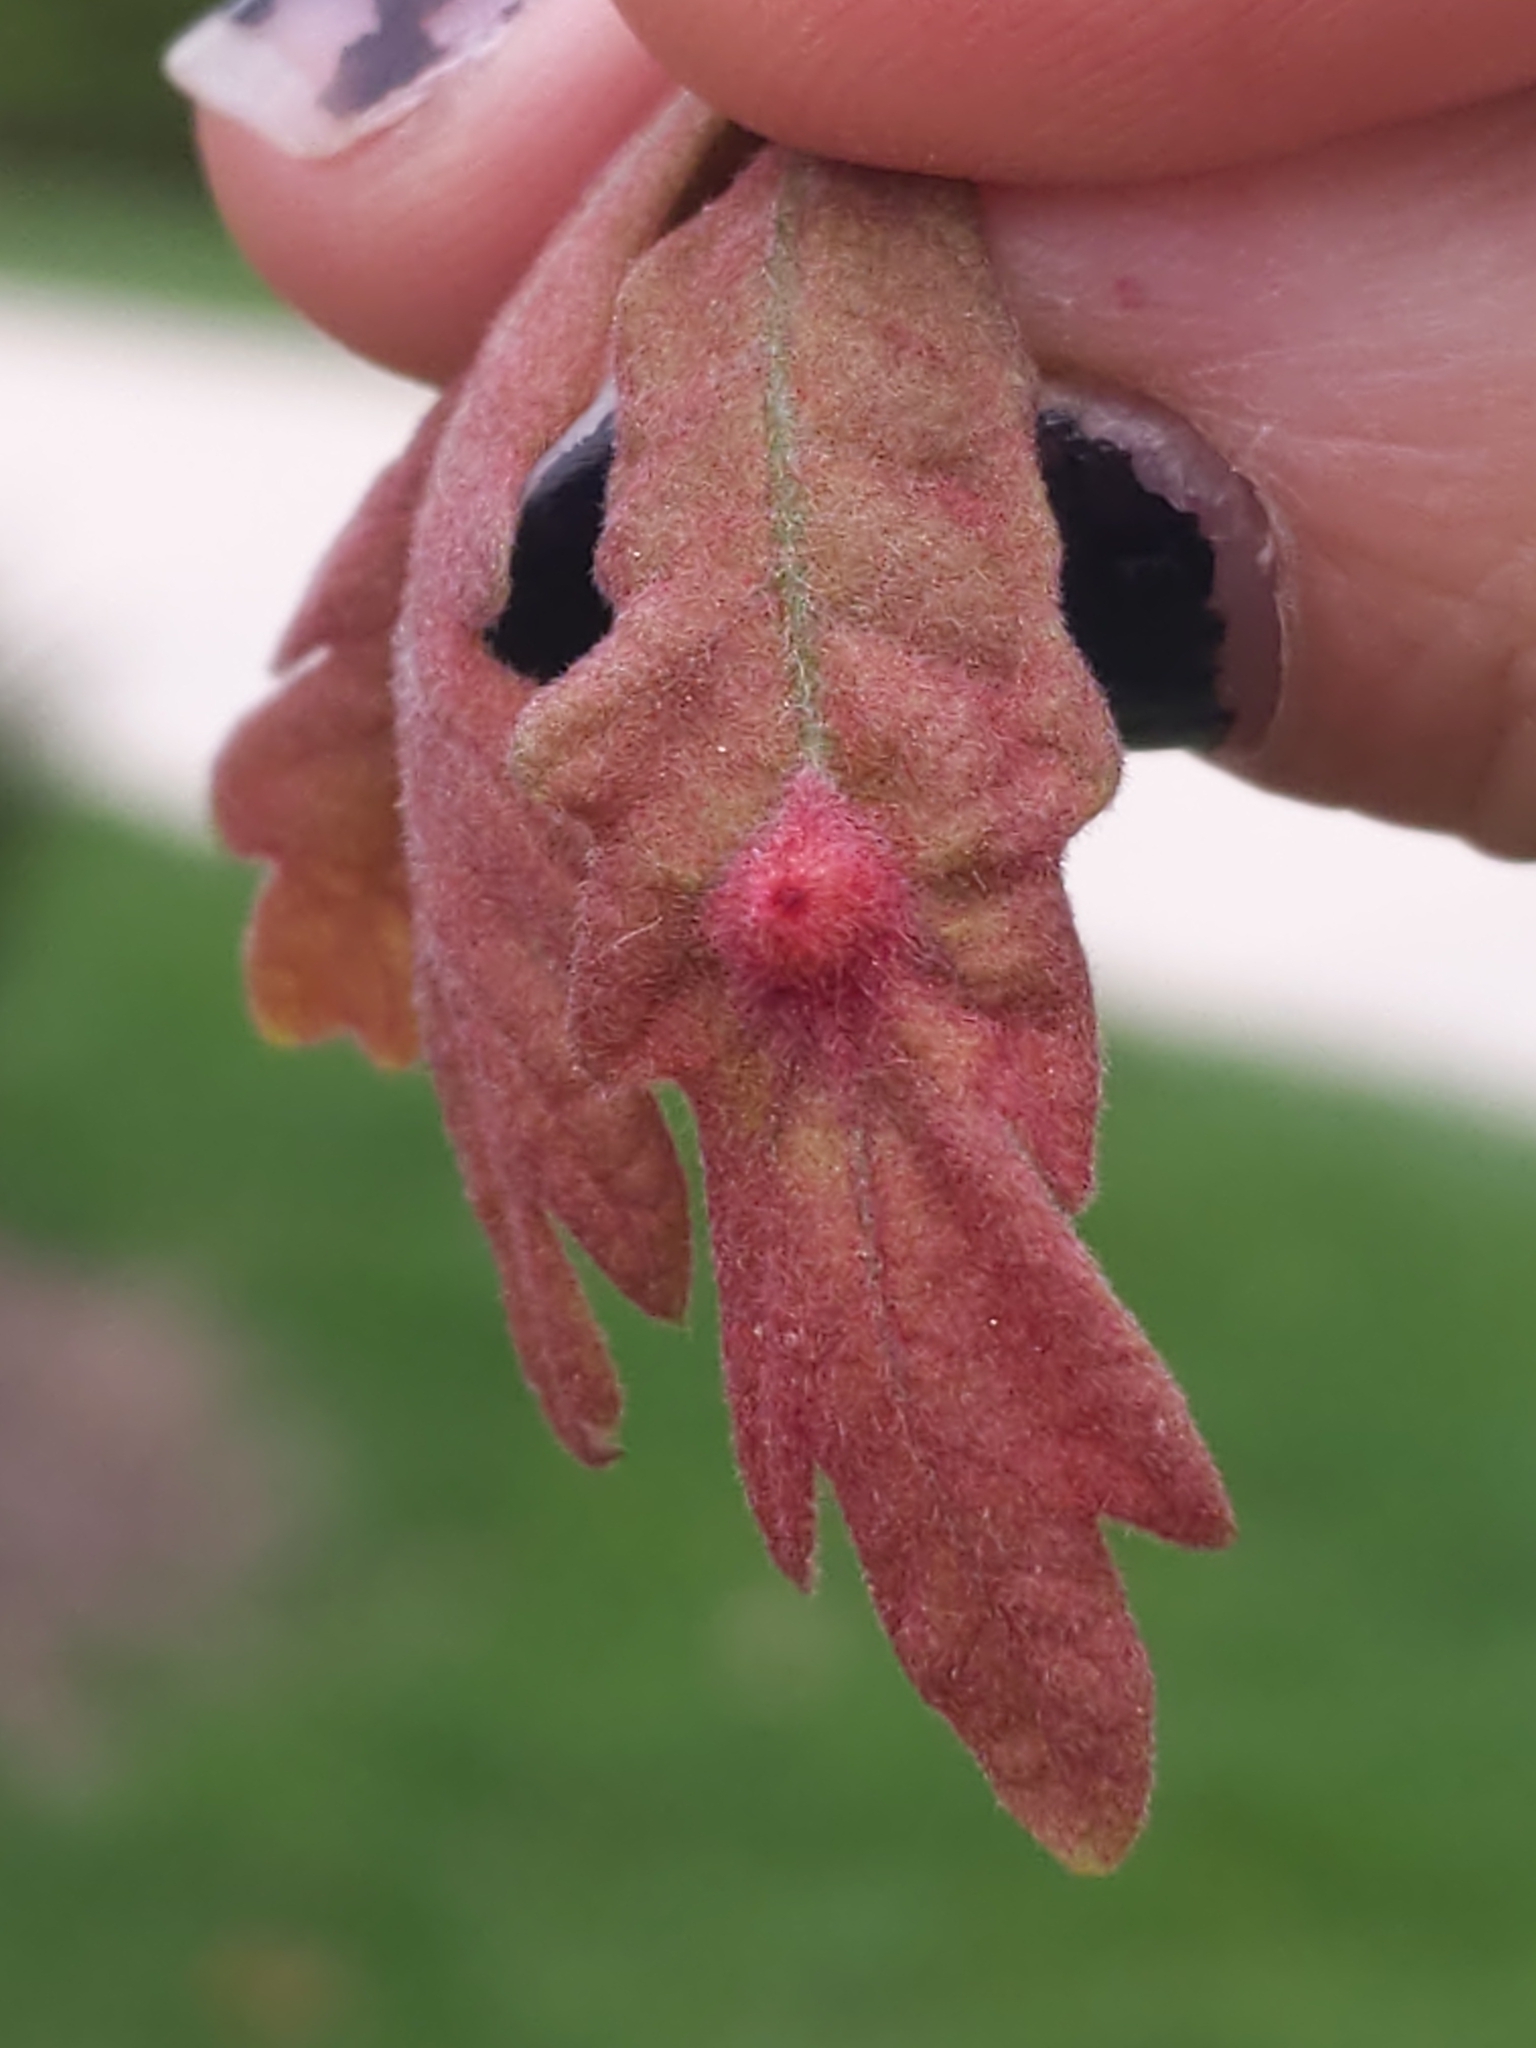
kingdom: Animalia
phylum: Arthropoda
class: Insecta
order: Hymenoptera
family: Cynipidae
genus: Andricus
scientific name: Andricus
